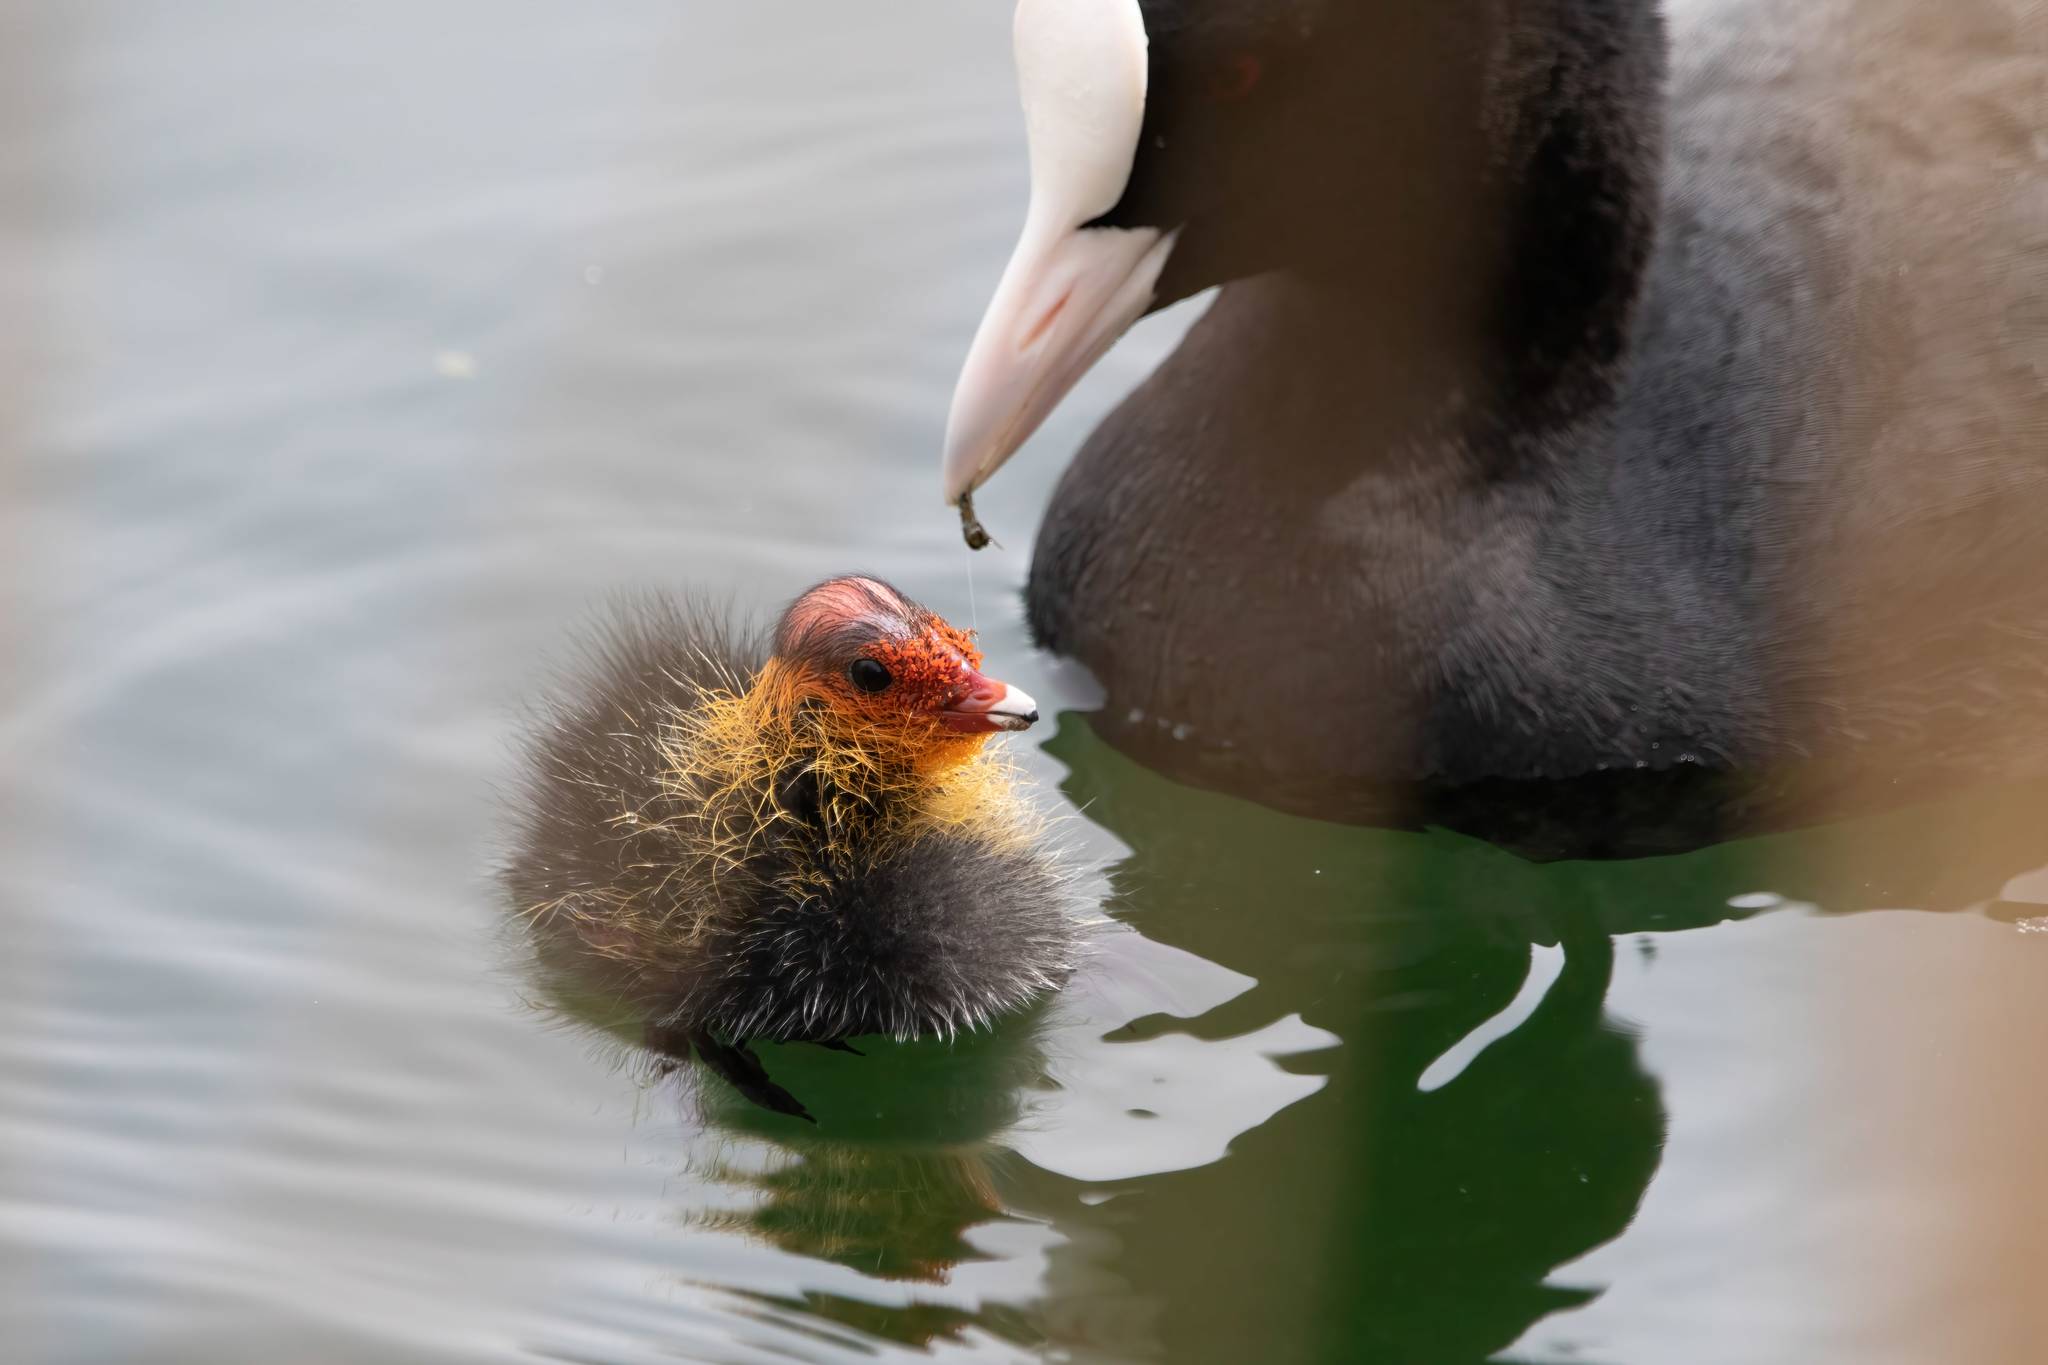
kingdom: Animalia
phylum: Chordata
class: Aves
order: Gruiformes
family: Rallidae
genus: Fulica
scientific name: Fulica atra
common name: Eurasian coot
